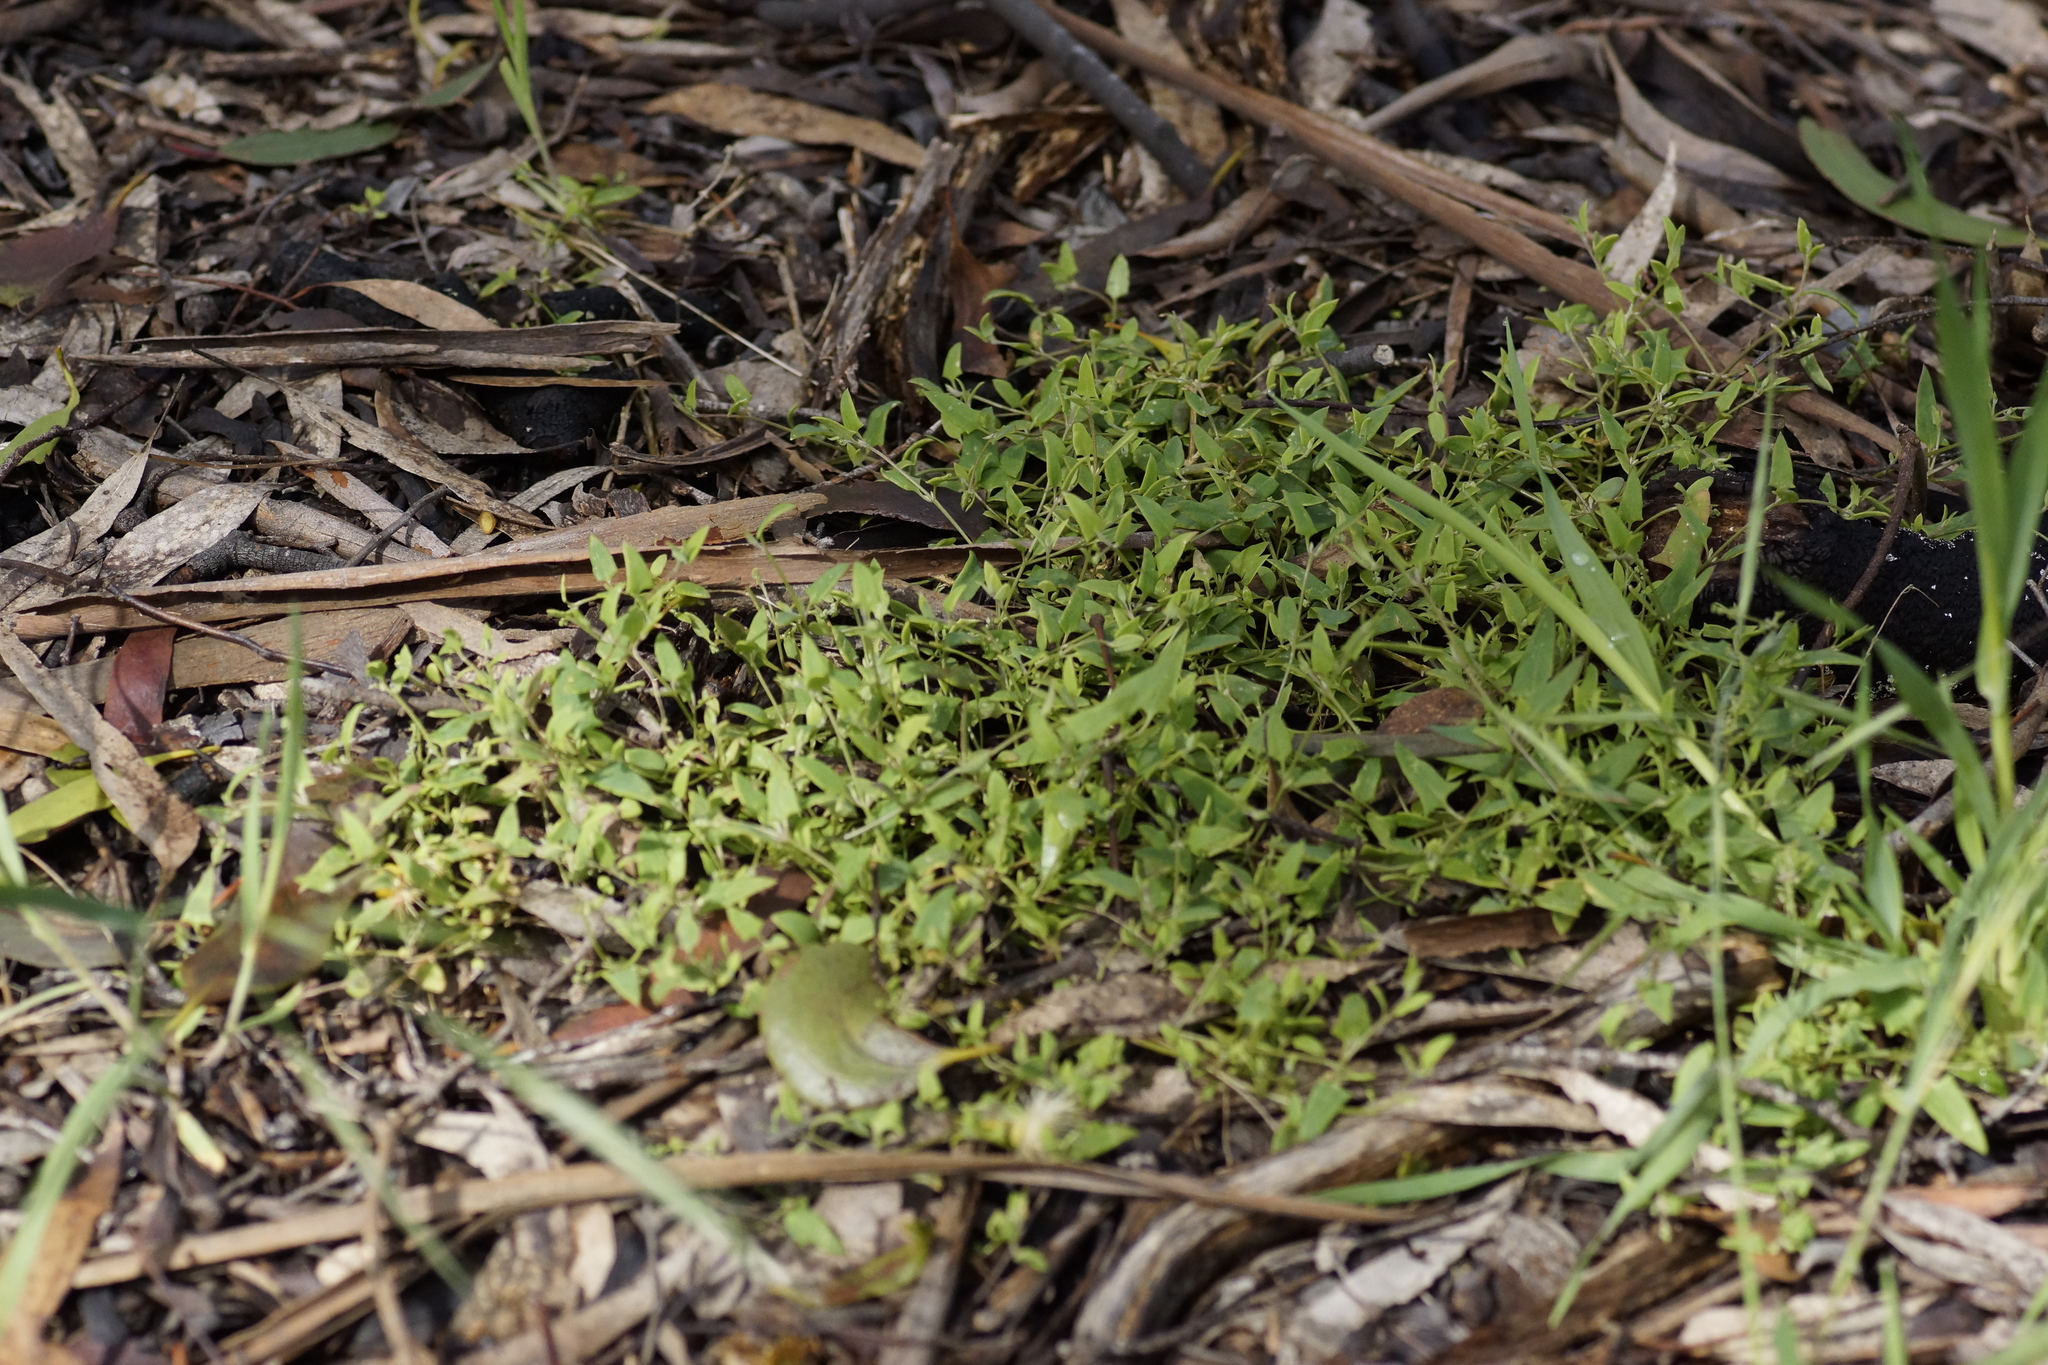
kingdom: Plantae
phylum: Tracheophyta
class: Magnoliopsida
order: Caryophyllales
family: Amaranthaceae
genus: Chenopodium
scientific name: Chenopodium nutans
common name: Climbing-saltbush
